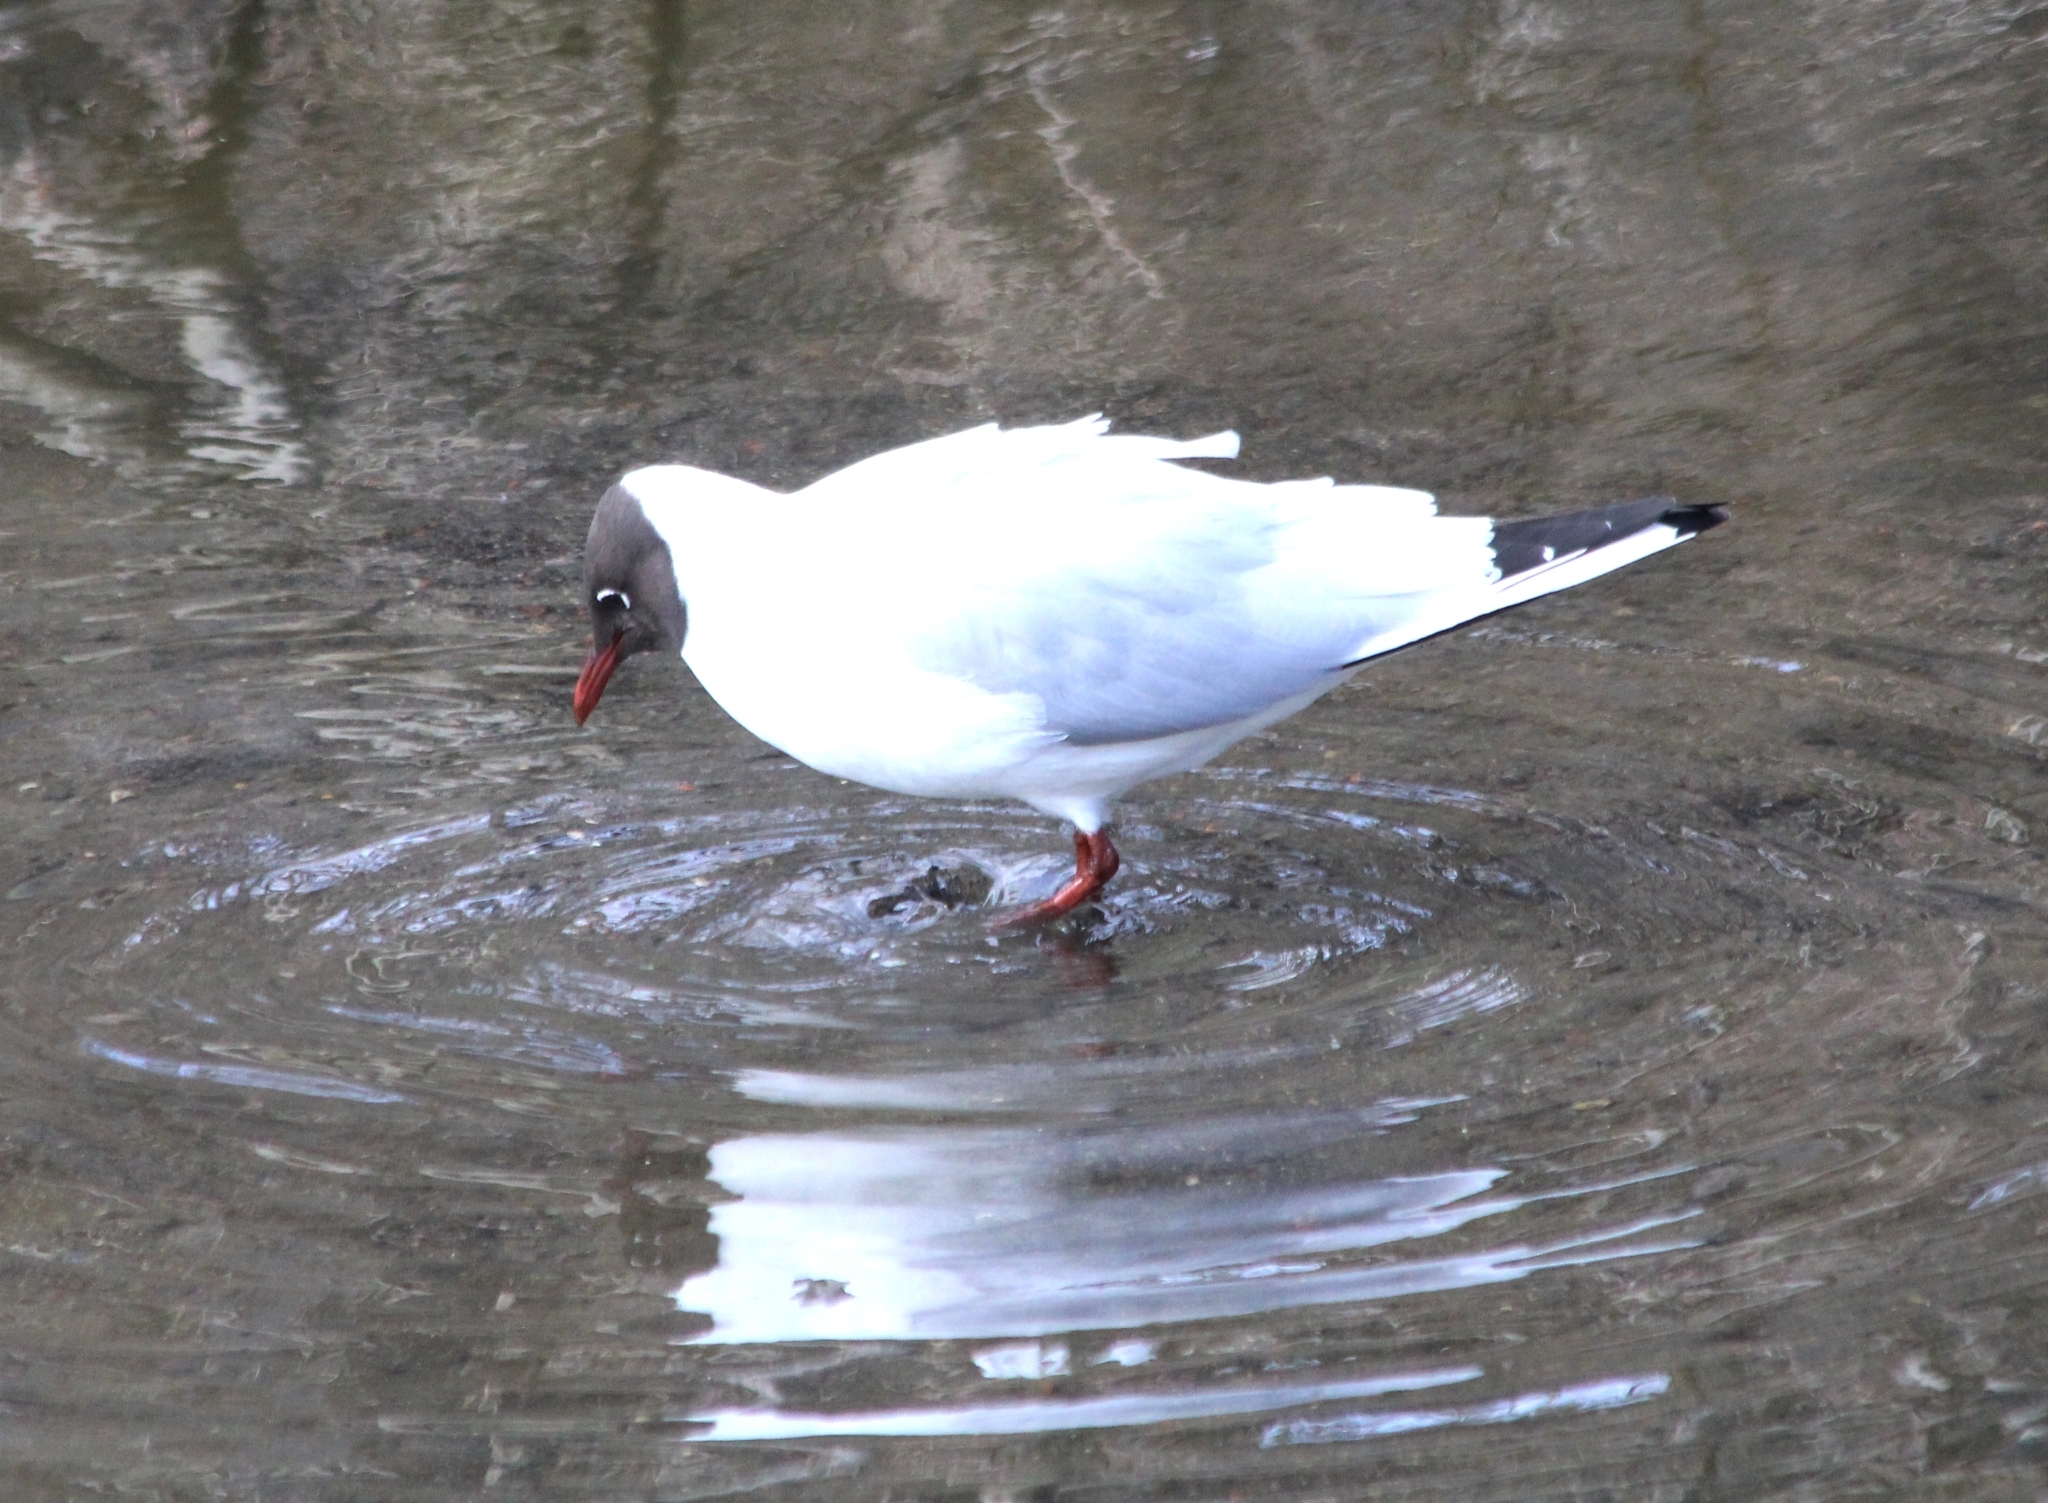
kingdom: Animalia
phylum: Chordata
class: Aves
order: Charadriiformes
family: Laridae
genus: Chroicocephalus
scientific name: Chroicocephalus ridibundus
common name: Black-headed gull
